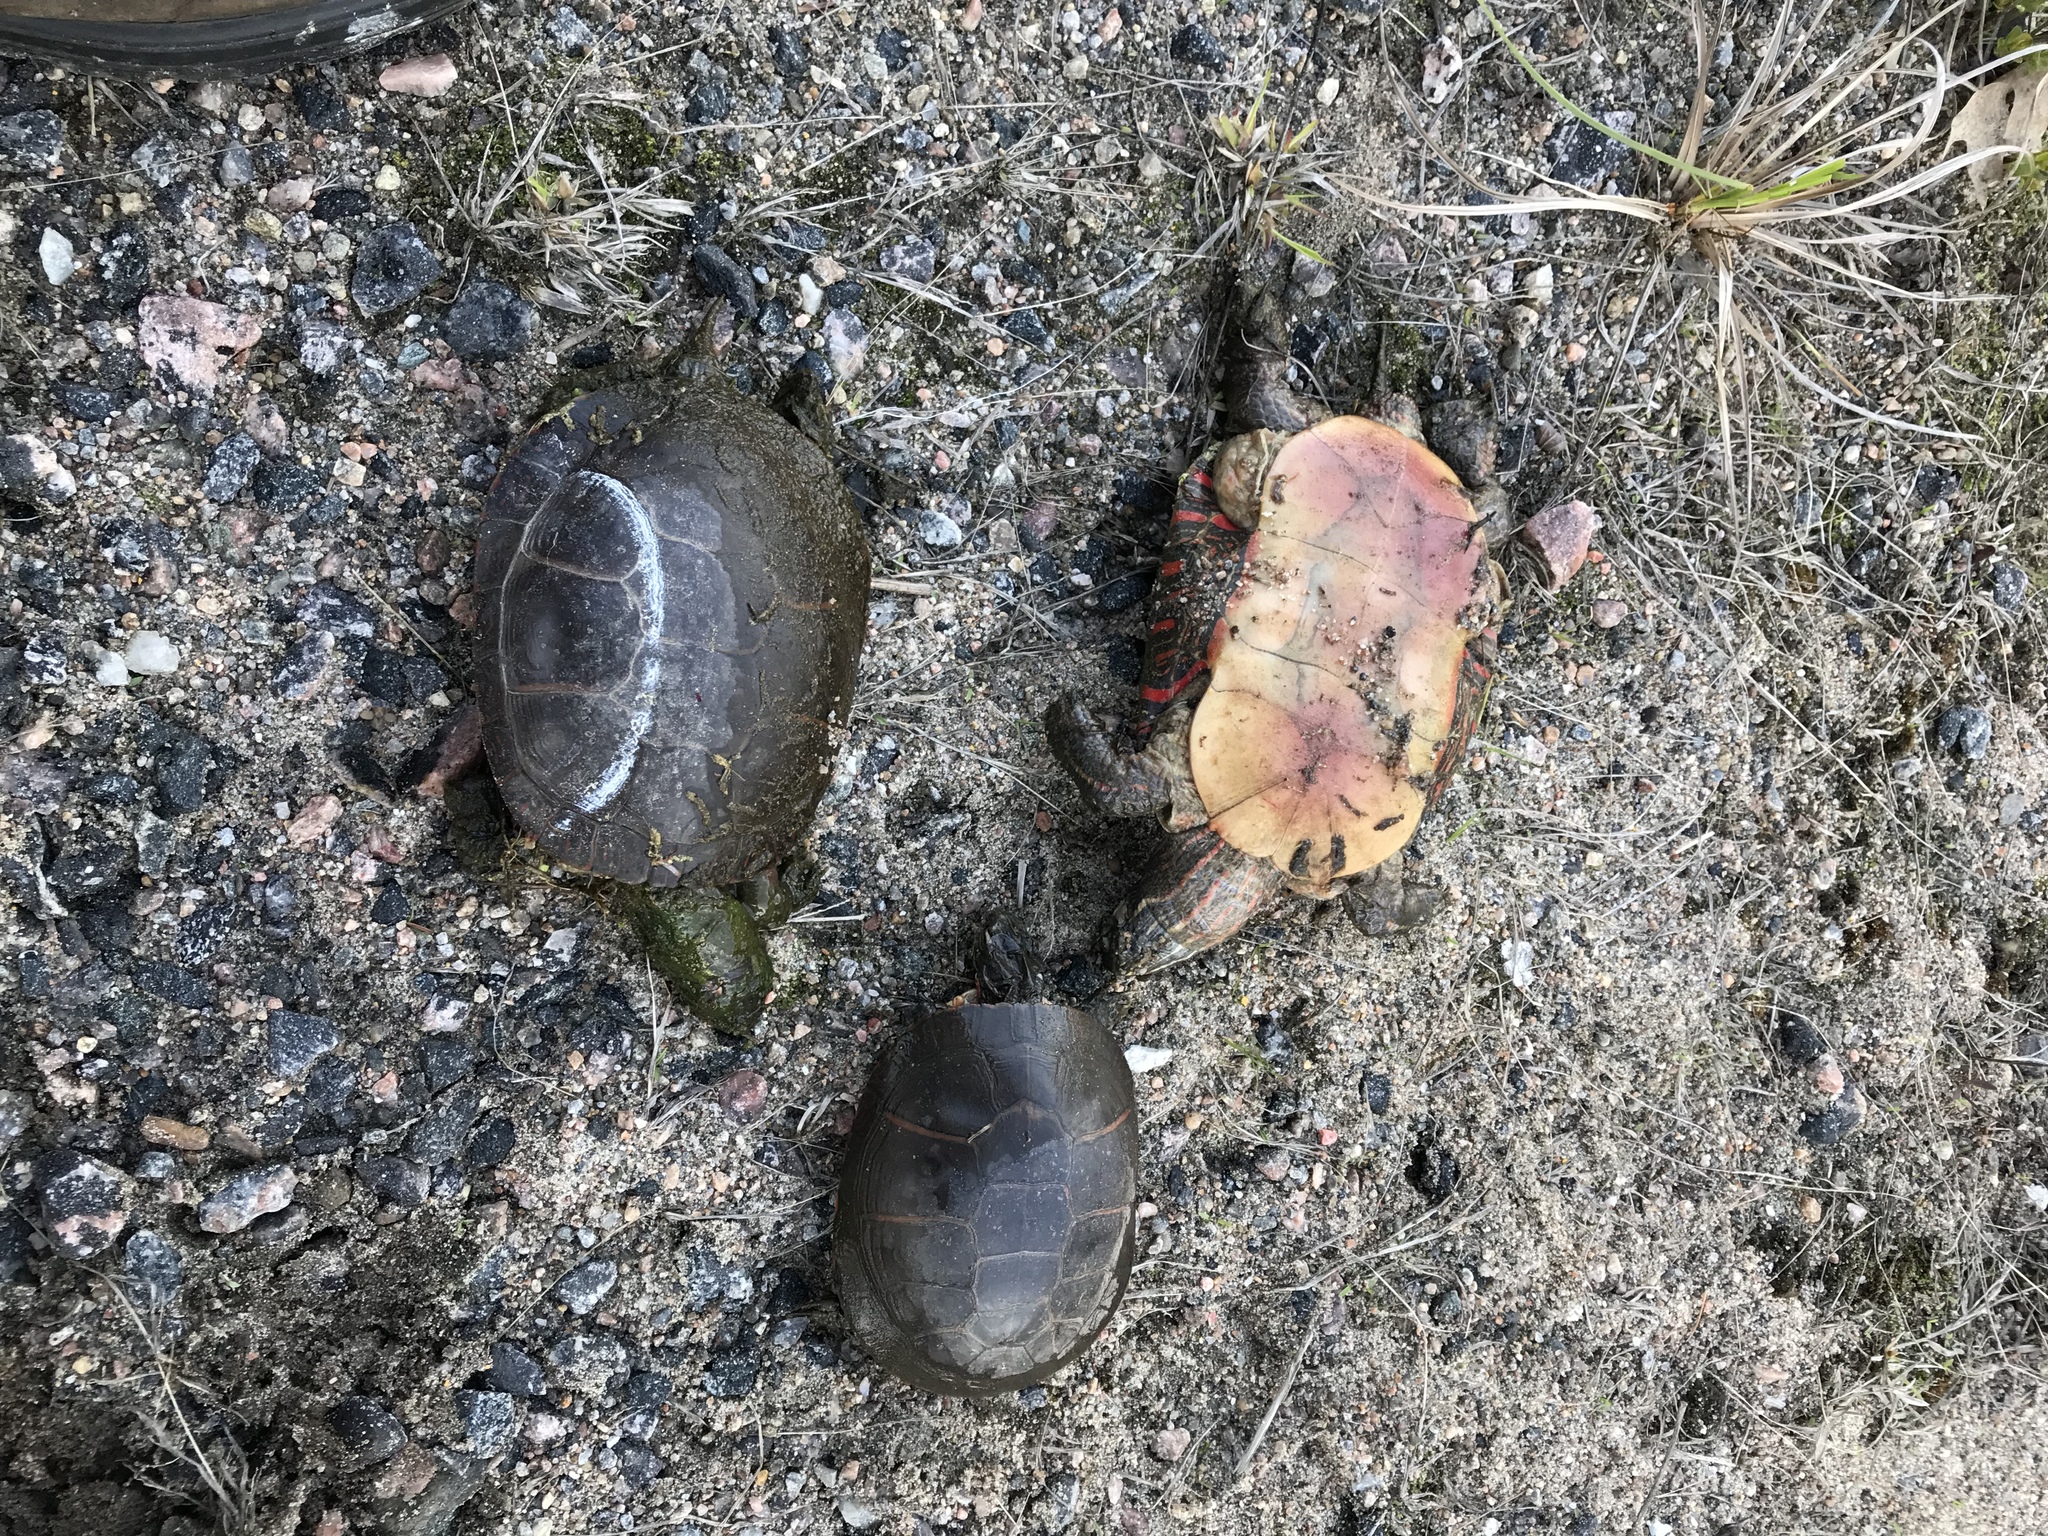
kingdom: Animalia
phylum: Chordata
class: Testudines
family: Emydidae
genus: Chrysemys
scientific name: Chrysemys picta
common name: Painted turtle
